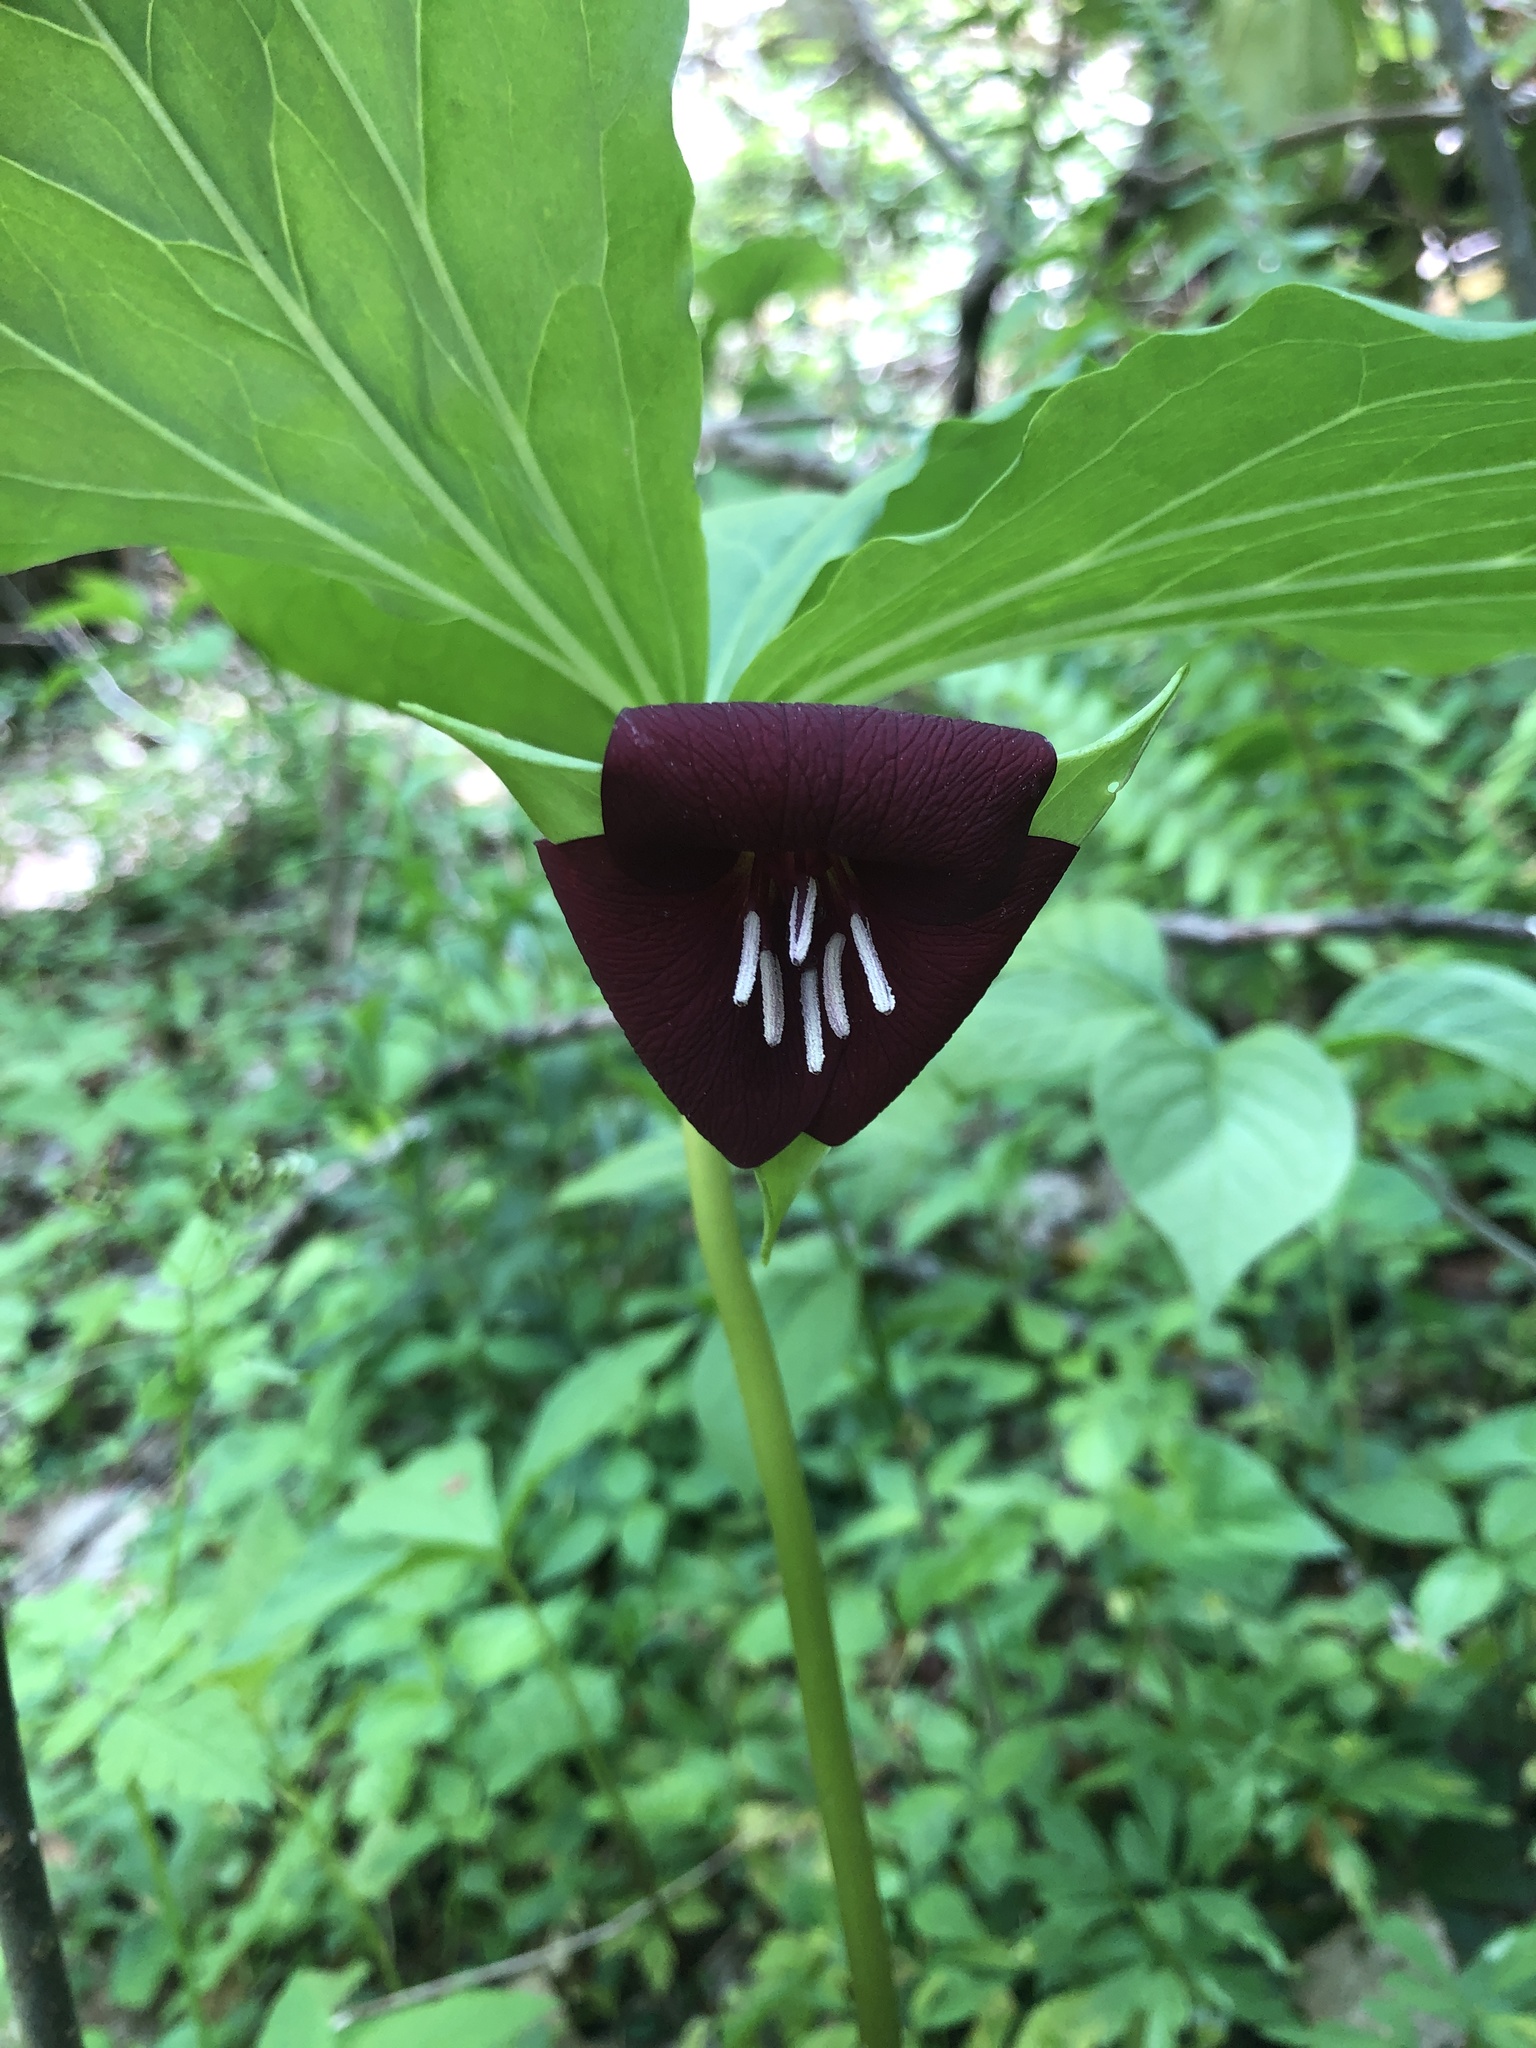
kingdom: Plantae
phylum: Tracheophyta
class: Liliopsida
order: Liliales
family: Melanthiaceae
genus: Trillium
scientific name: Trillium vaseyi
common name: Sweet trillium
